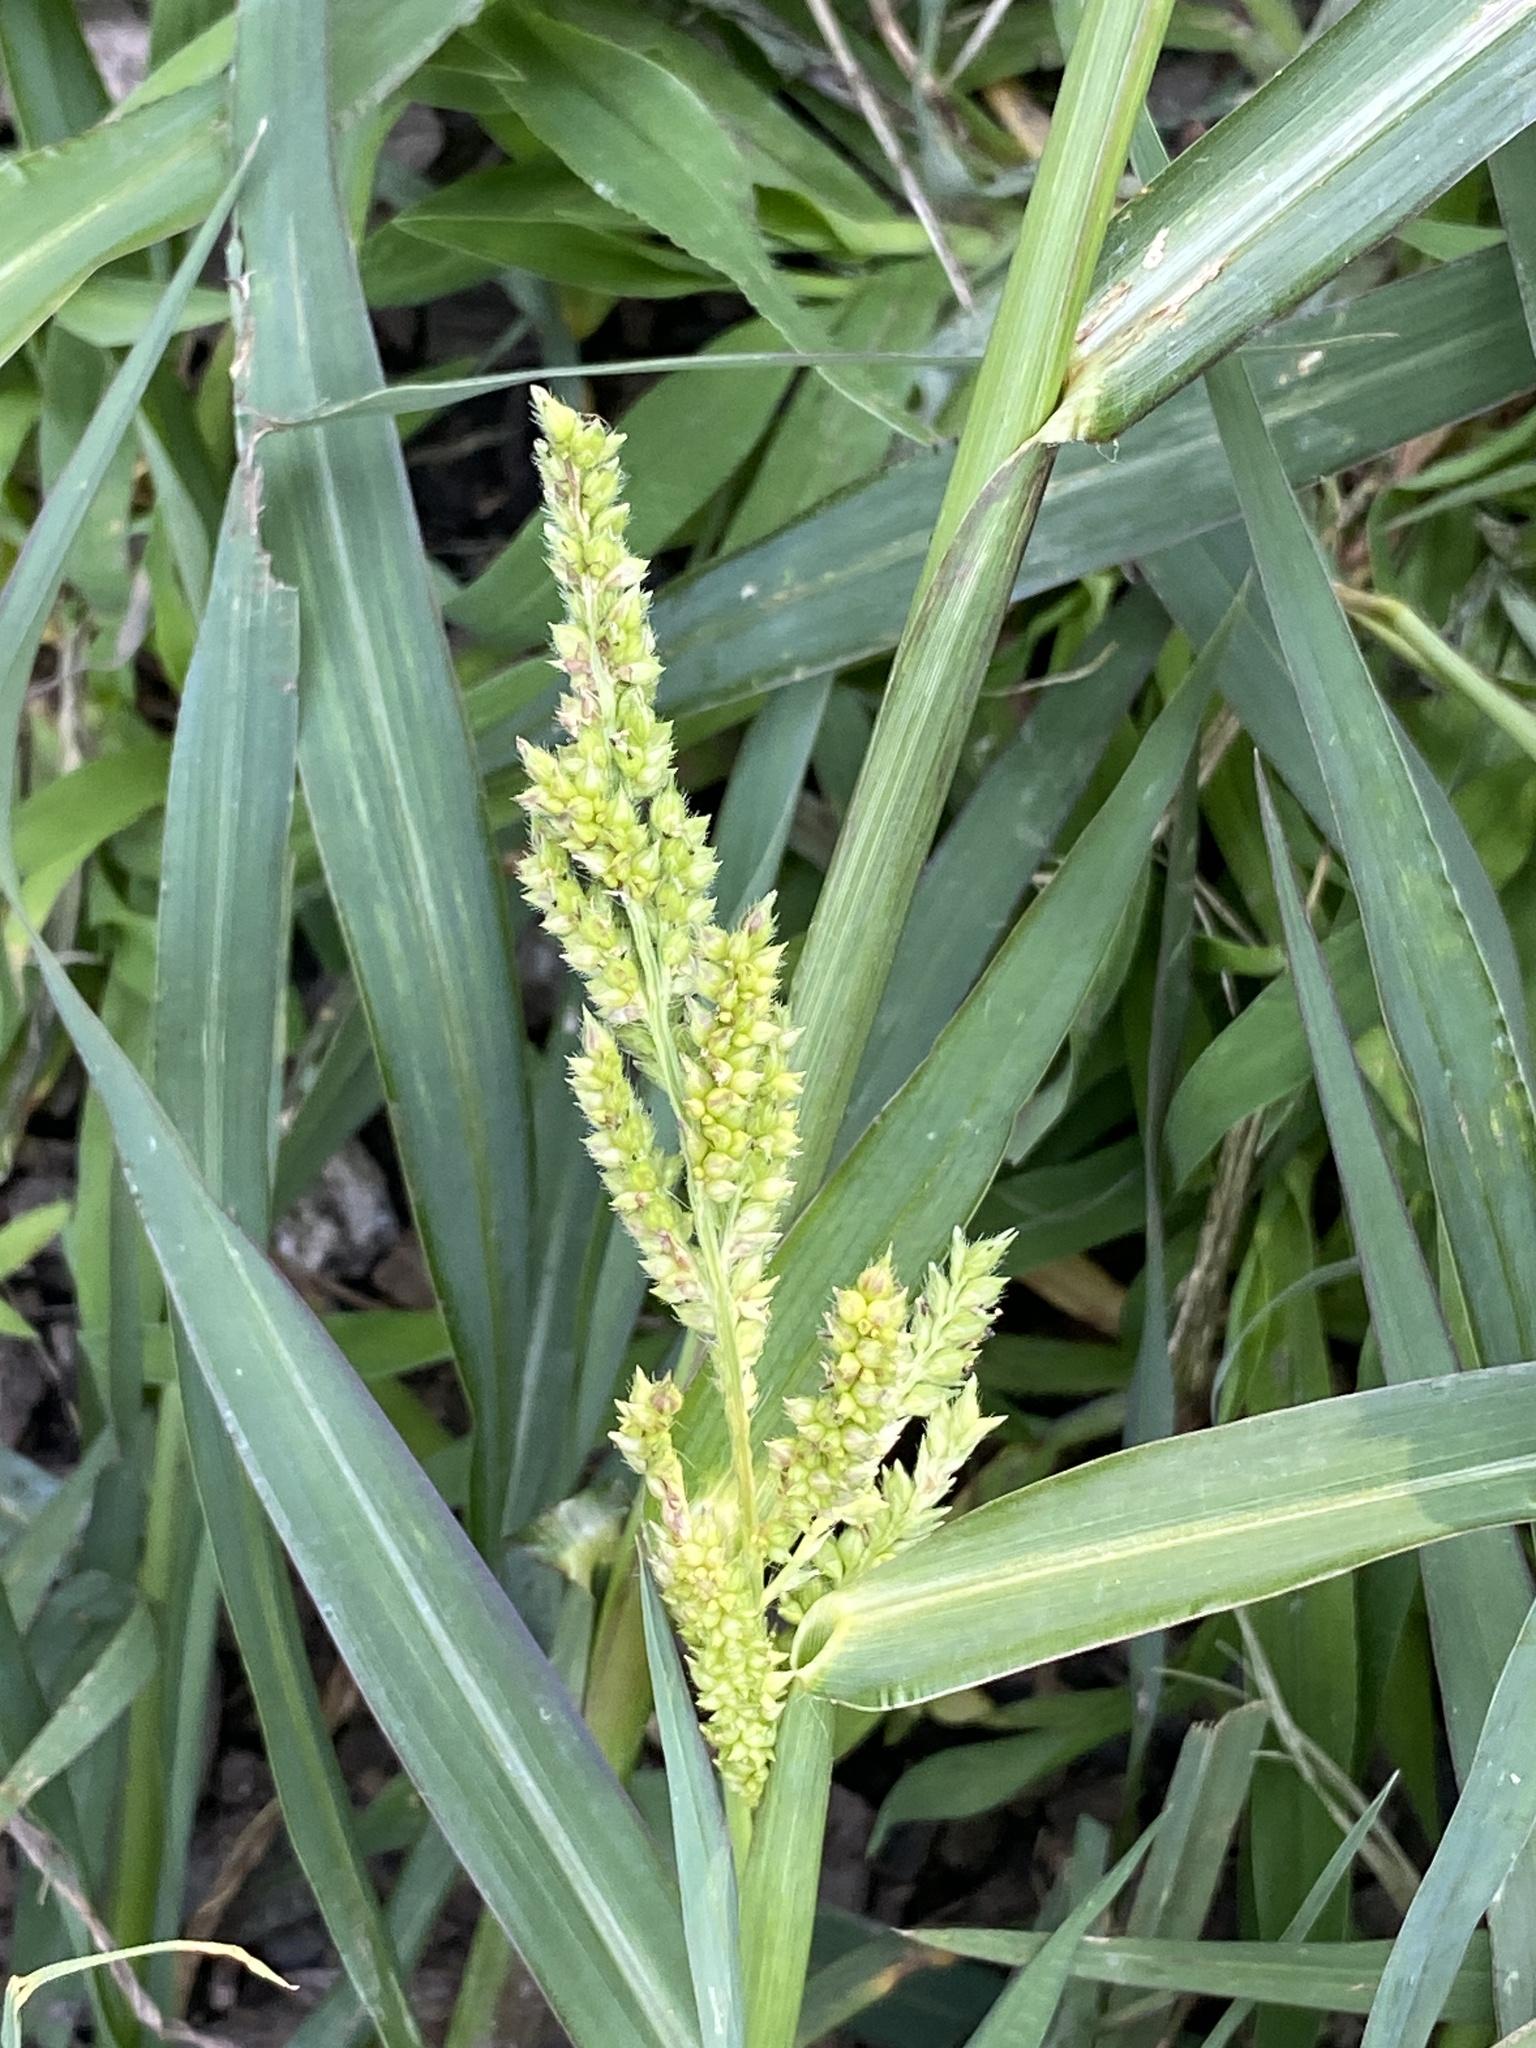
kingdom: Plantae
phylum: Tracheophyta
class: Liliopsida
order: Poales
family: Poaceae
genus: Echinochloa
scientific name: Echinochloa crus-galli
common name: Cockspur
